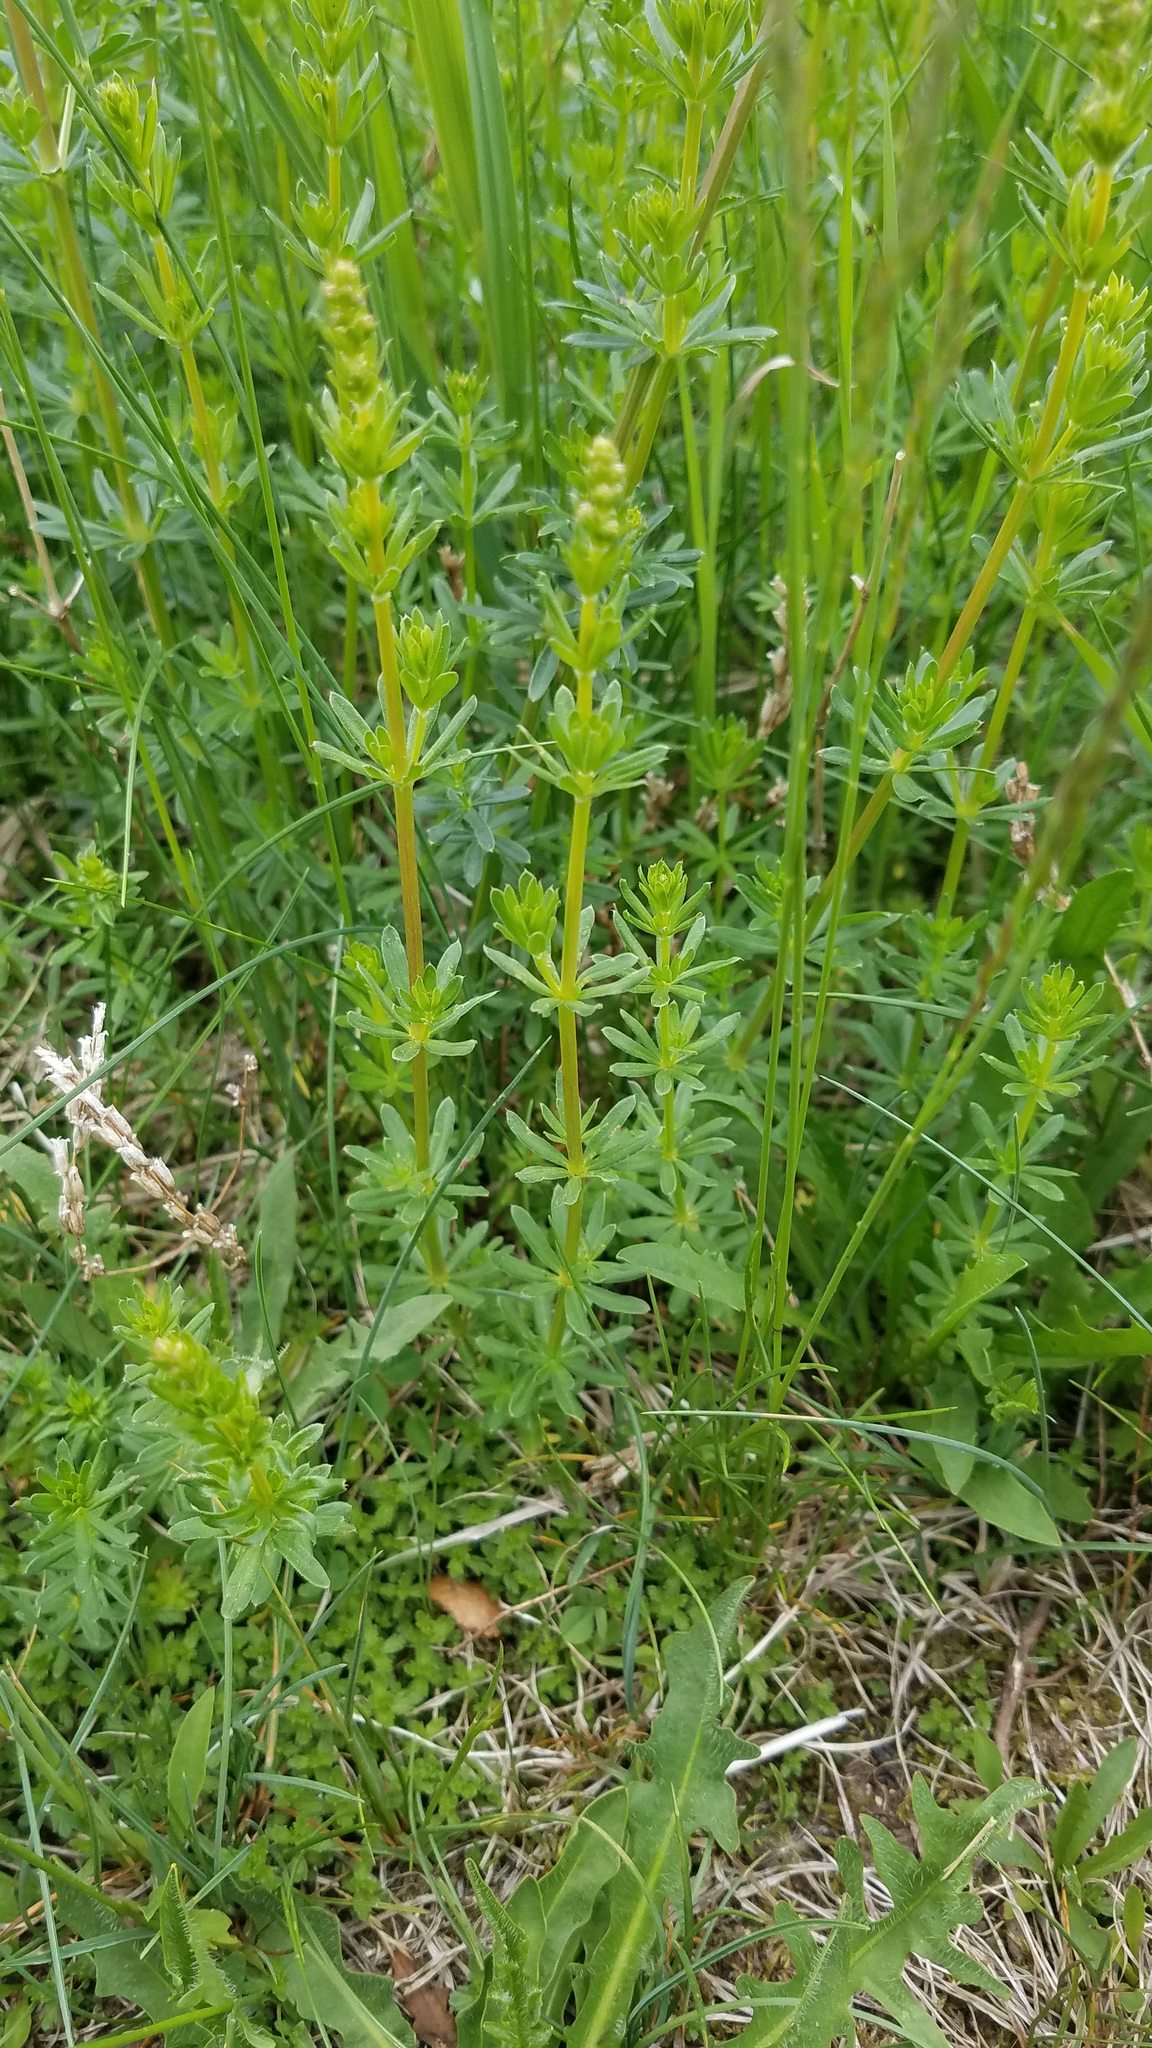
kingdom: Plantae
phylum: Tracheophyta
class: Magnoliopsida
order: Gentianales
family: Rubiaceae
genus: Galium
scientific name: Galium mollugo
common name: Hedge bedstraw
